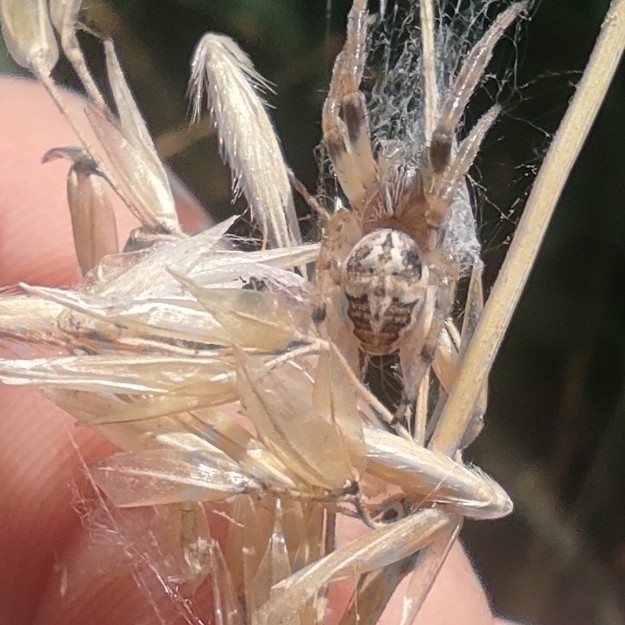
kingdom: Animalia
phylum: Arthropoda
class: Arachnida
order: Araneae
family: Araneidae
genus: Larinioides
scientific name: Larinioides cornutus
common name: Furrow orbweaver
